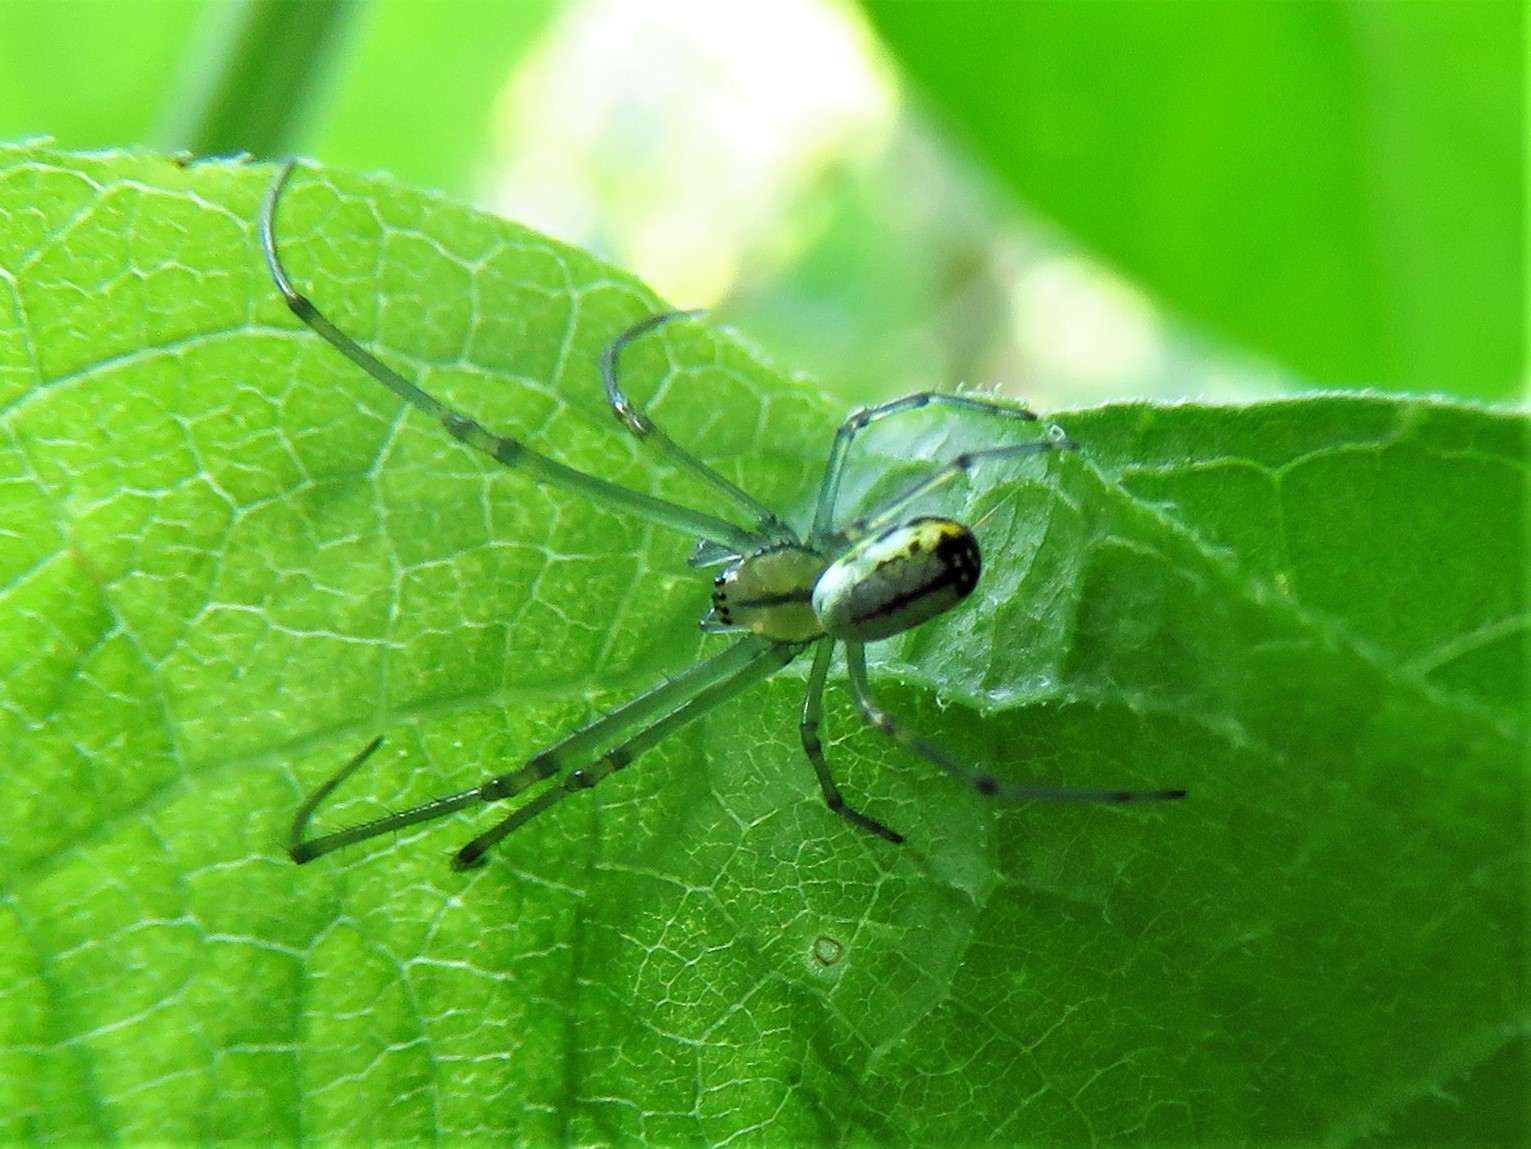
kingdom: Animalia
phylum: Arthropoda
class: Arachnida
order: Araneae
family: Tetragnathidae
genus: Leucauge
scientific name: Leucauge venusta
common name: Longjawed orb weavers
